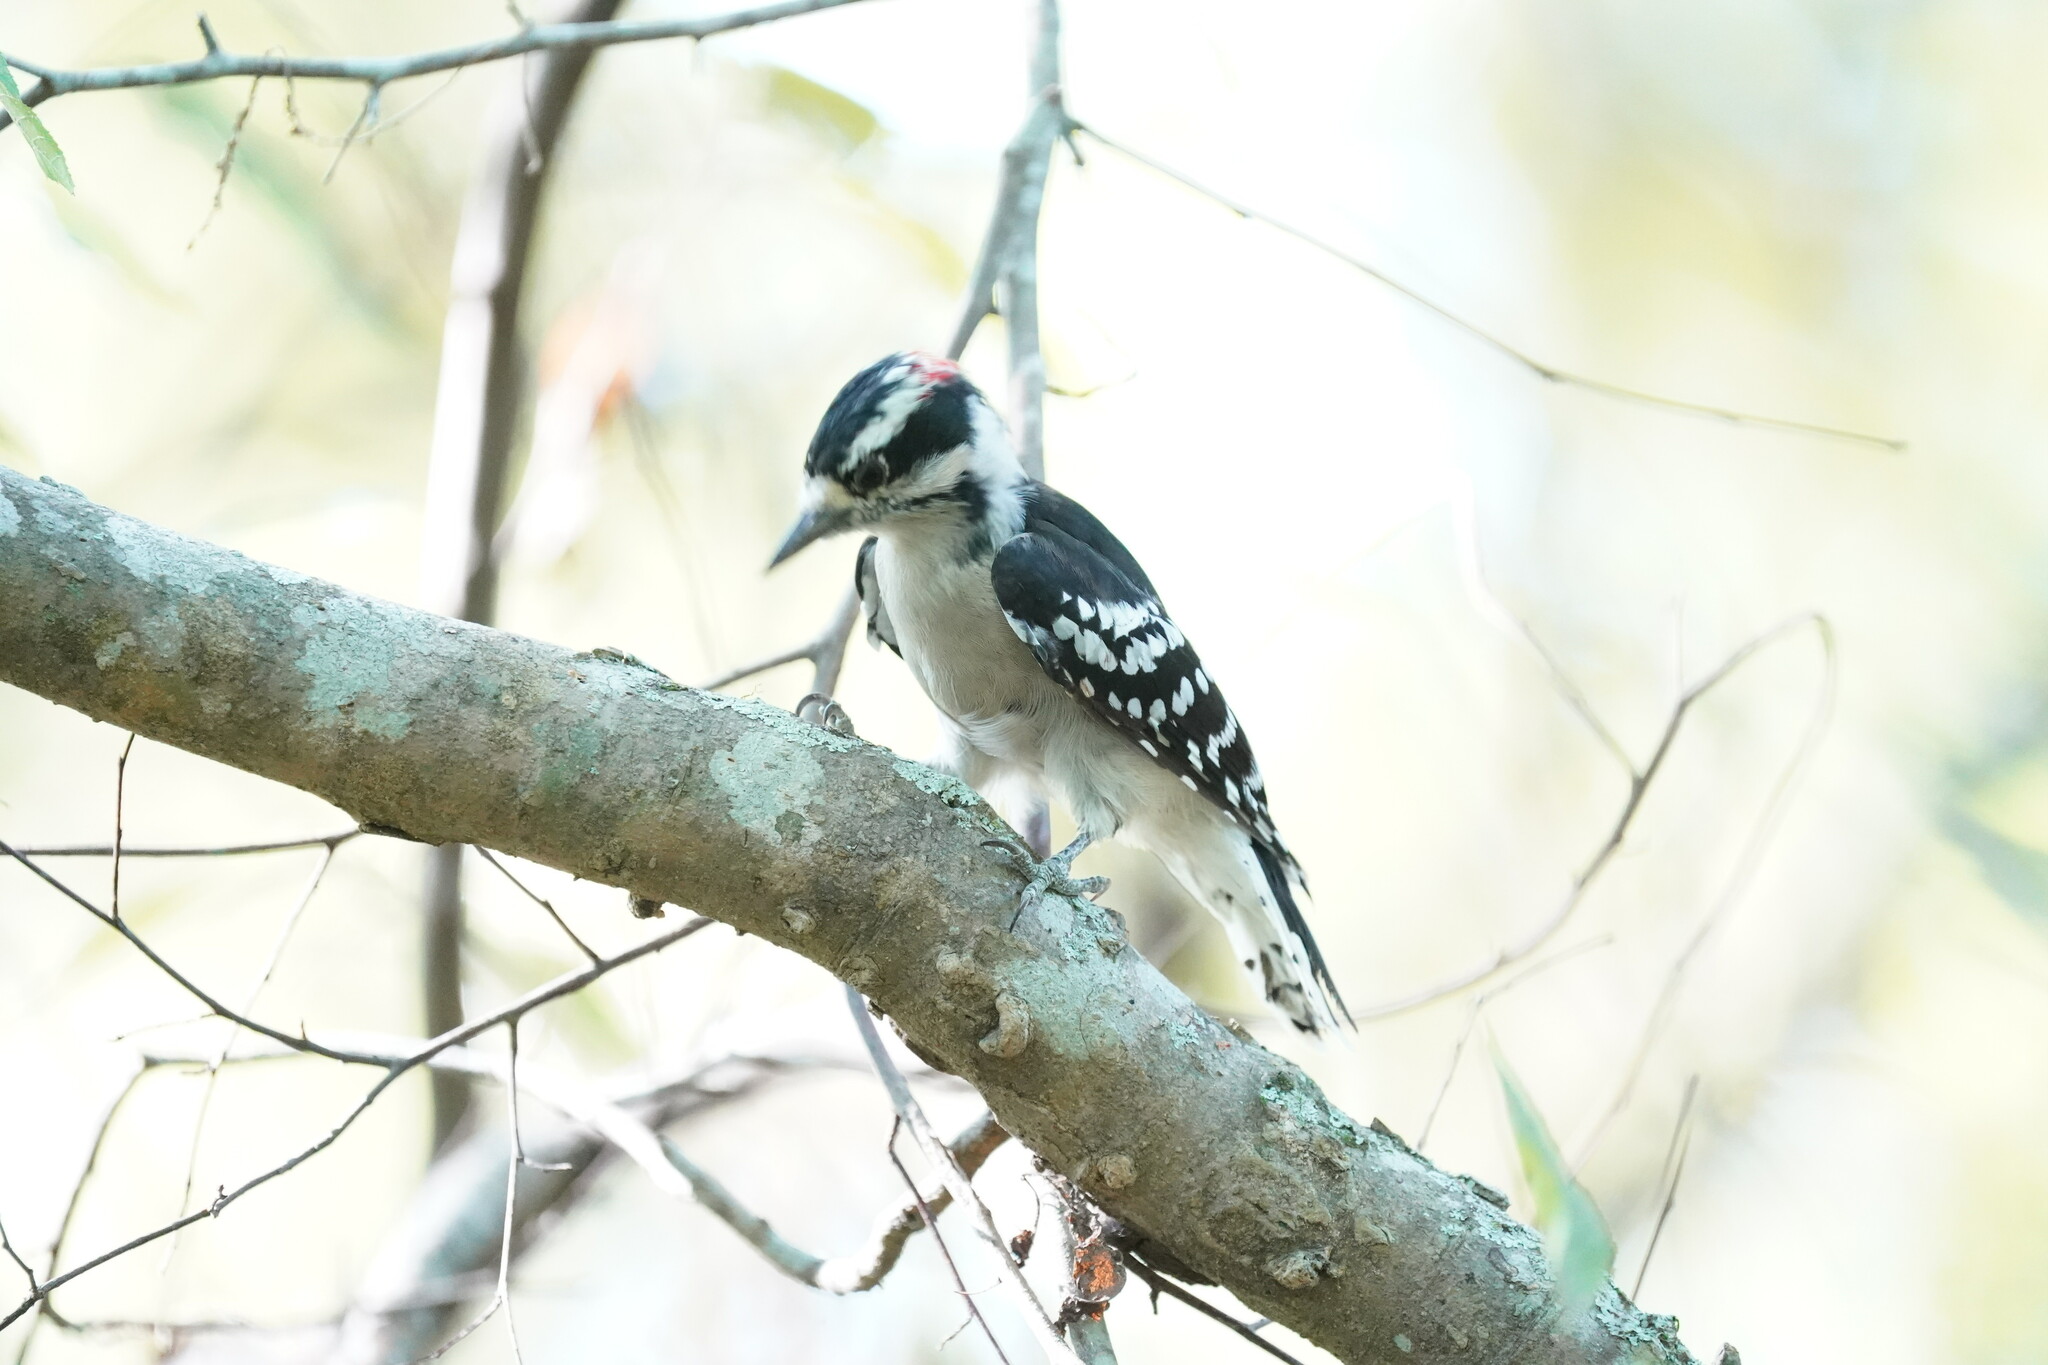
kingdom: Animalia
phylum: Chordata
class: Aves
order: Piciformes
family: Picidae
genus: Dryobates
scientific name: Dryobates pubescens
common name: Downy woodpecker
